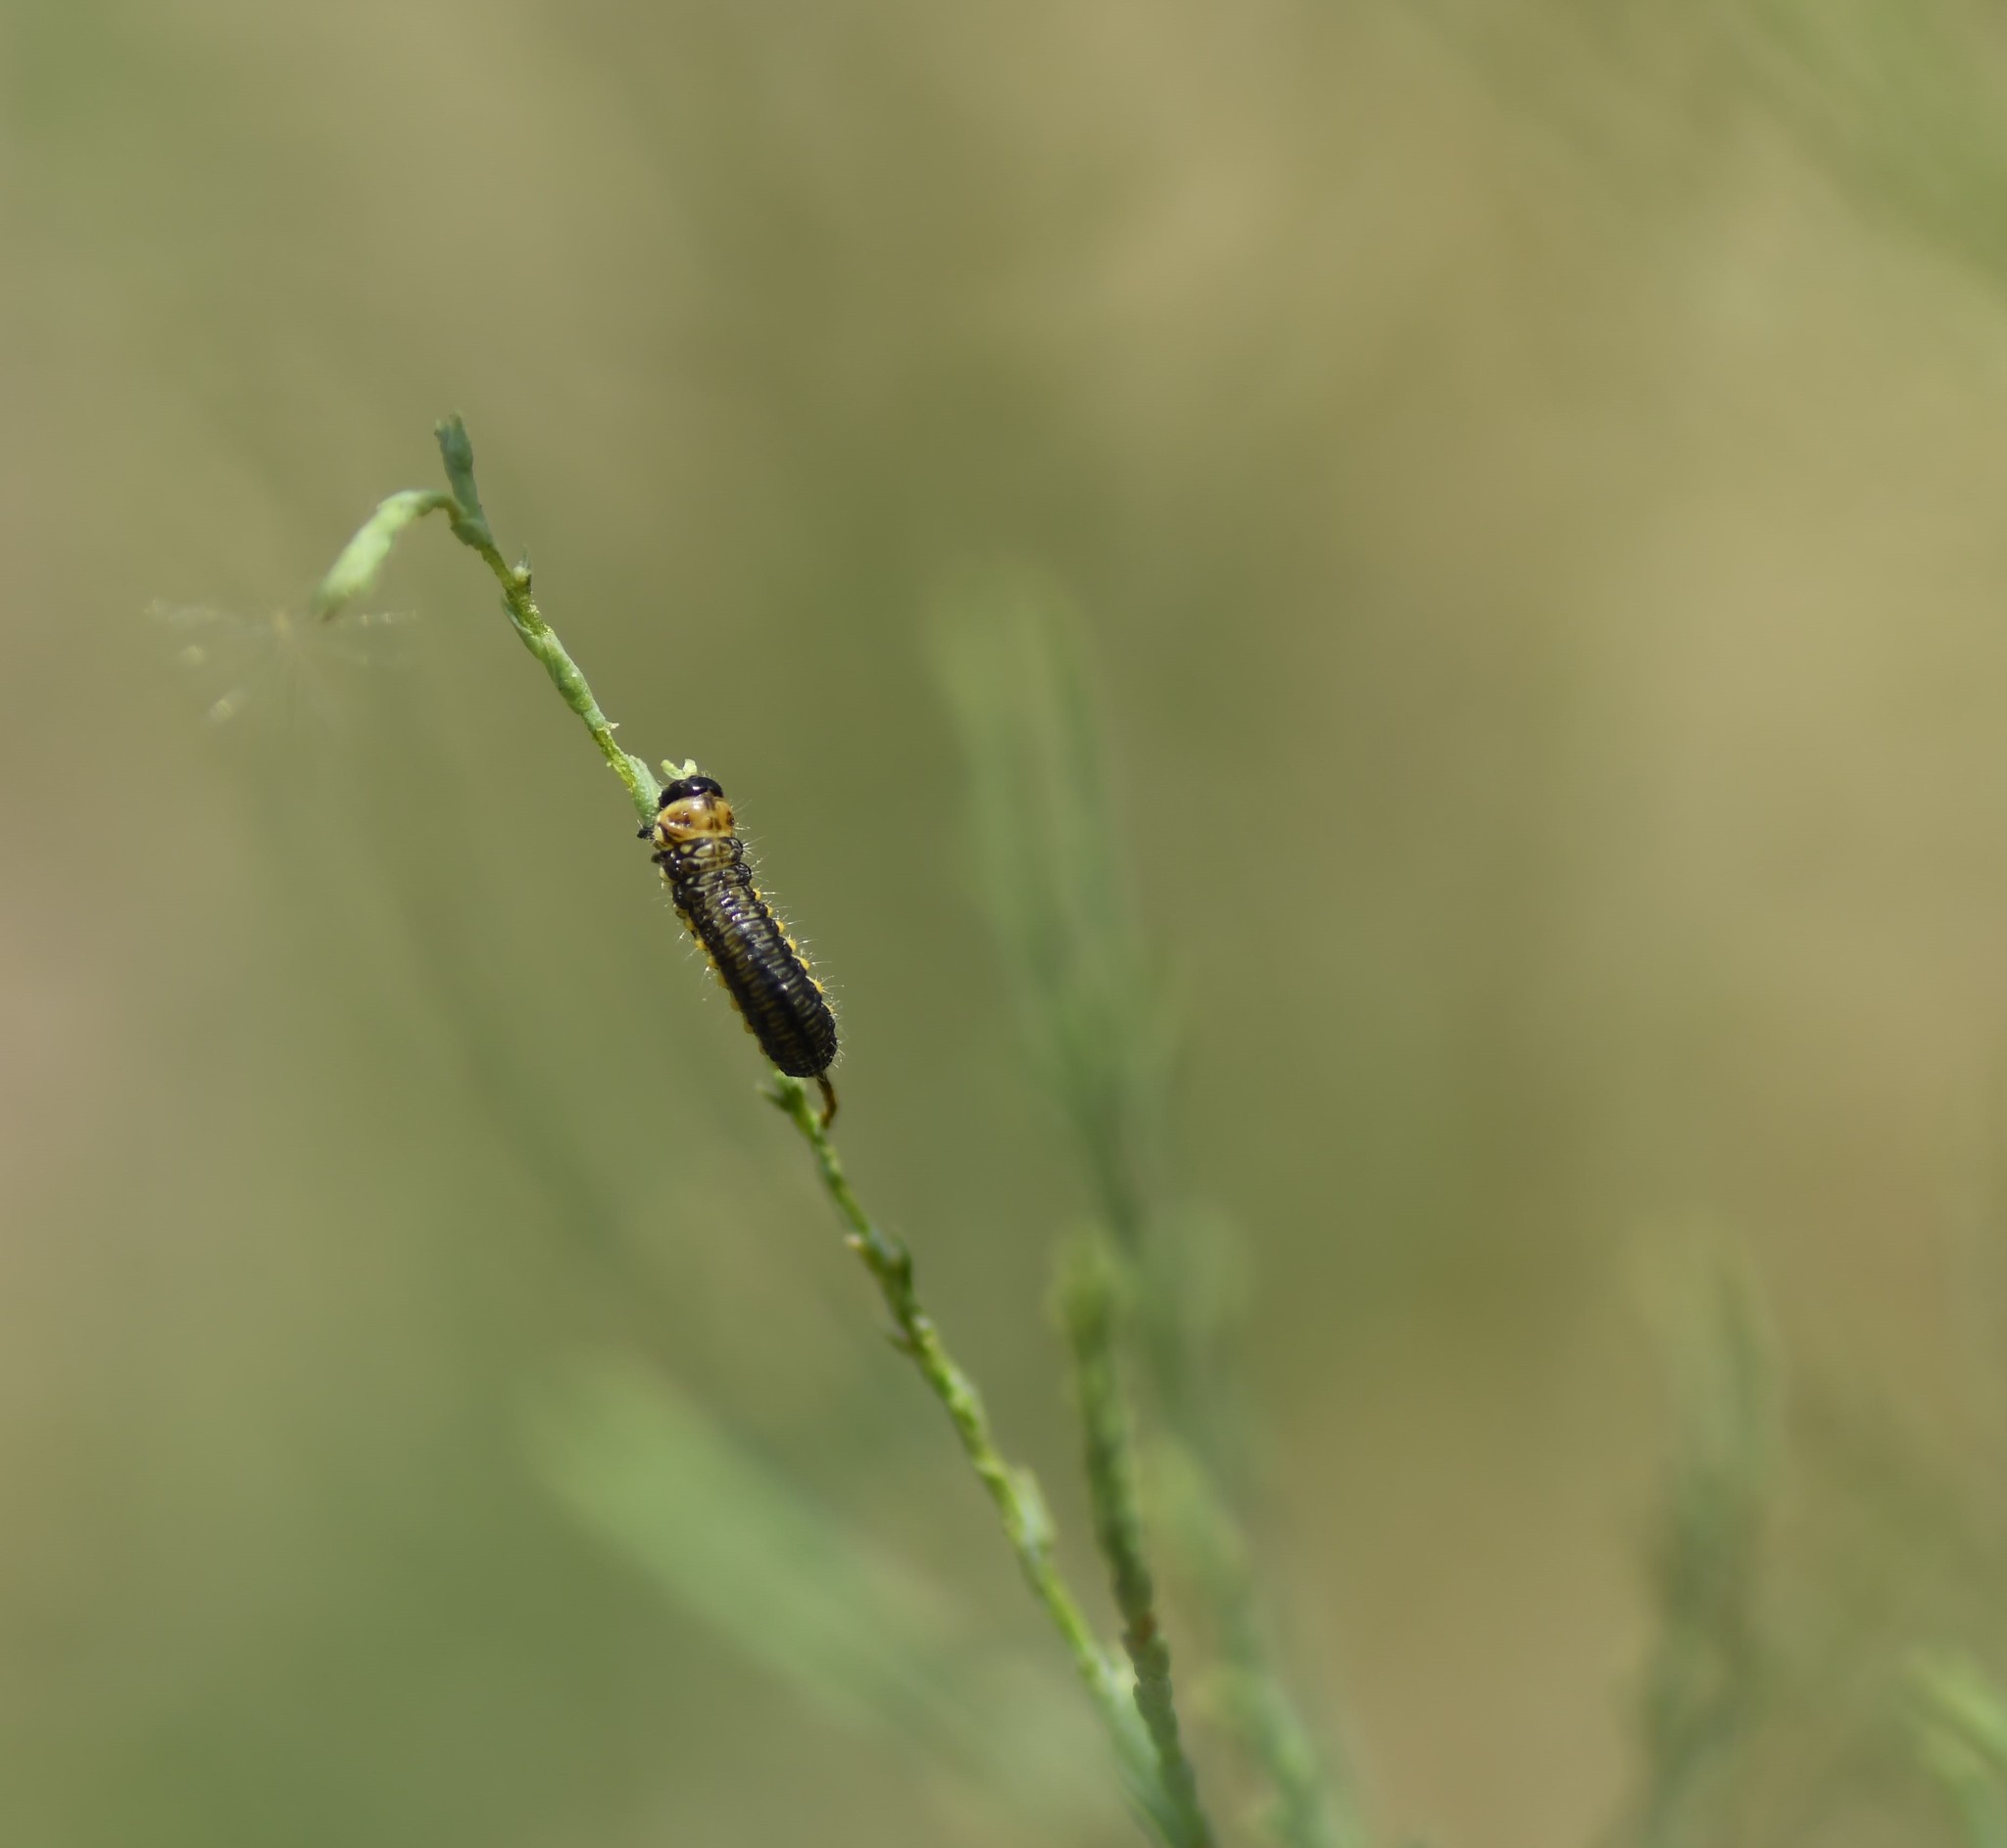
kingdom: Animalia
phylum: Arthropoda
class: Insecta
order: Coleoptera
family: Chrysomelidae
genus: Diorhabda
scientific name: Diorhabda carinulata
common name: Tamarisk leaf beetle
